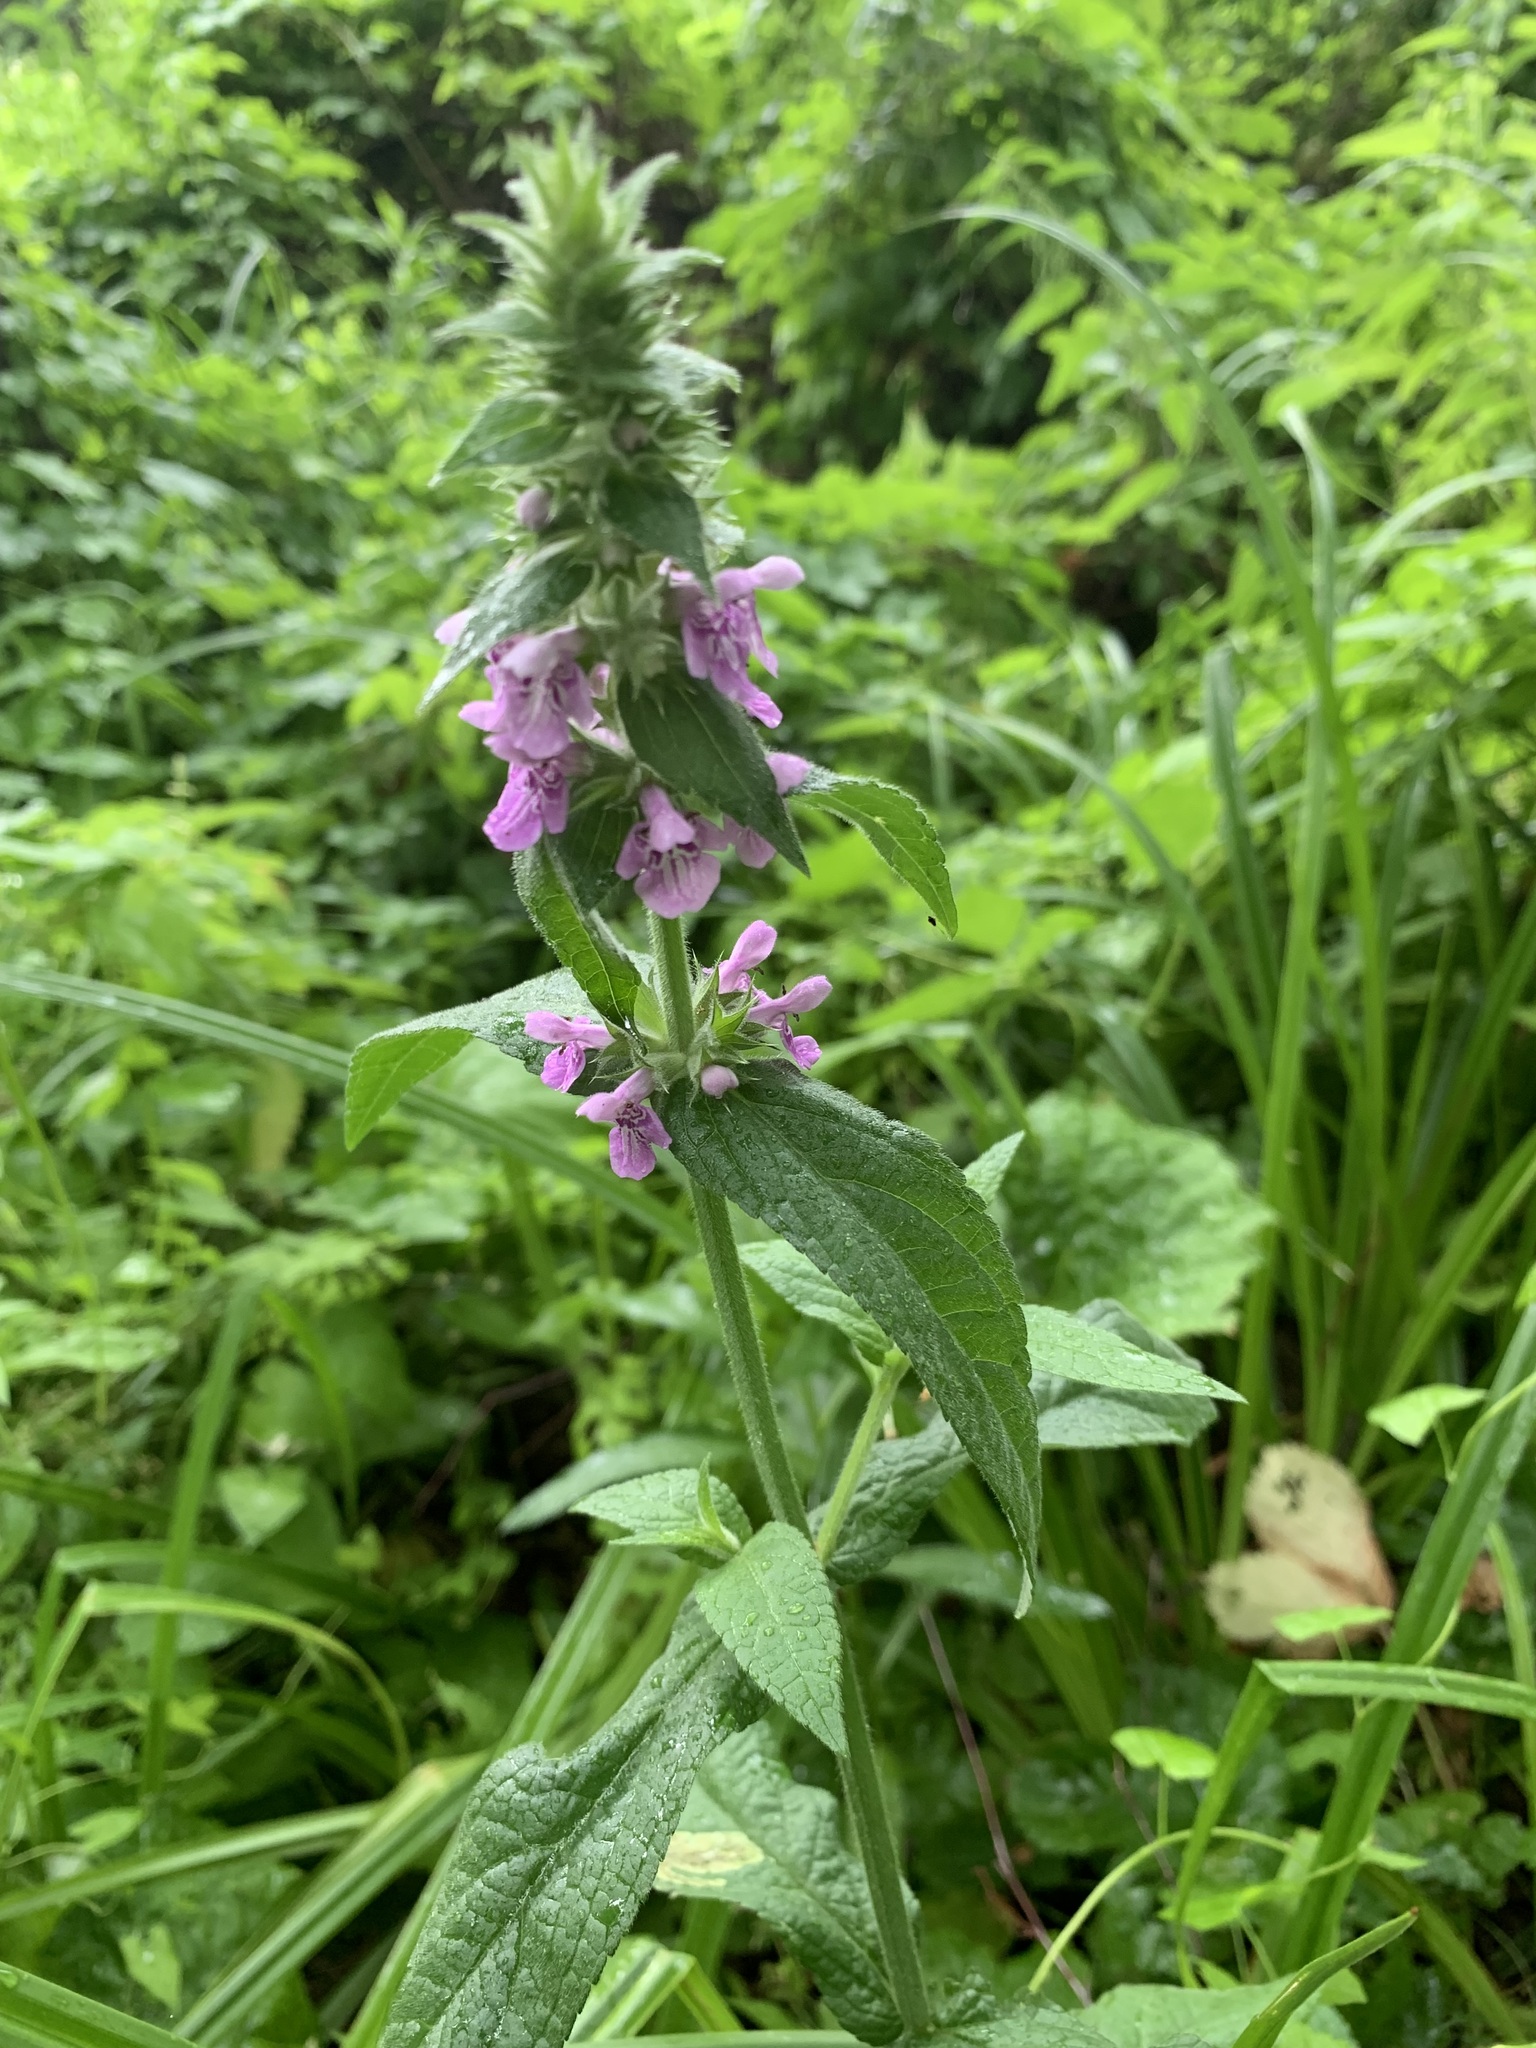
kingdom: Plantae
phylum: Tracheophyta
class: Magnoliopsida
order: Lamiales
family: Lamiaceae
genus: Stachys
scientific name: Stachys palustris
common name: Marsh woundwort
